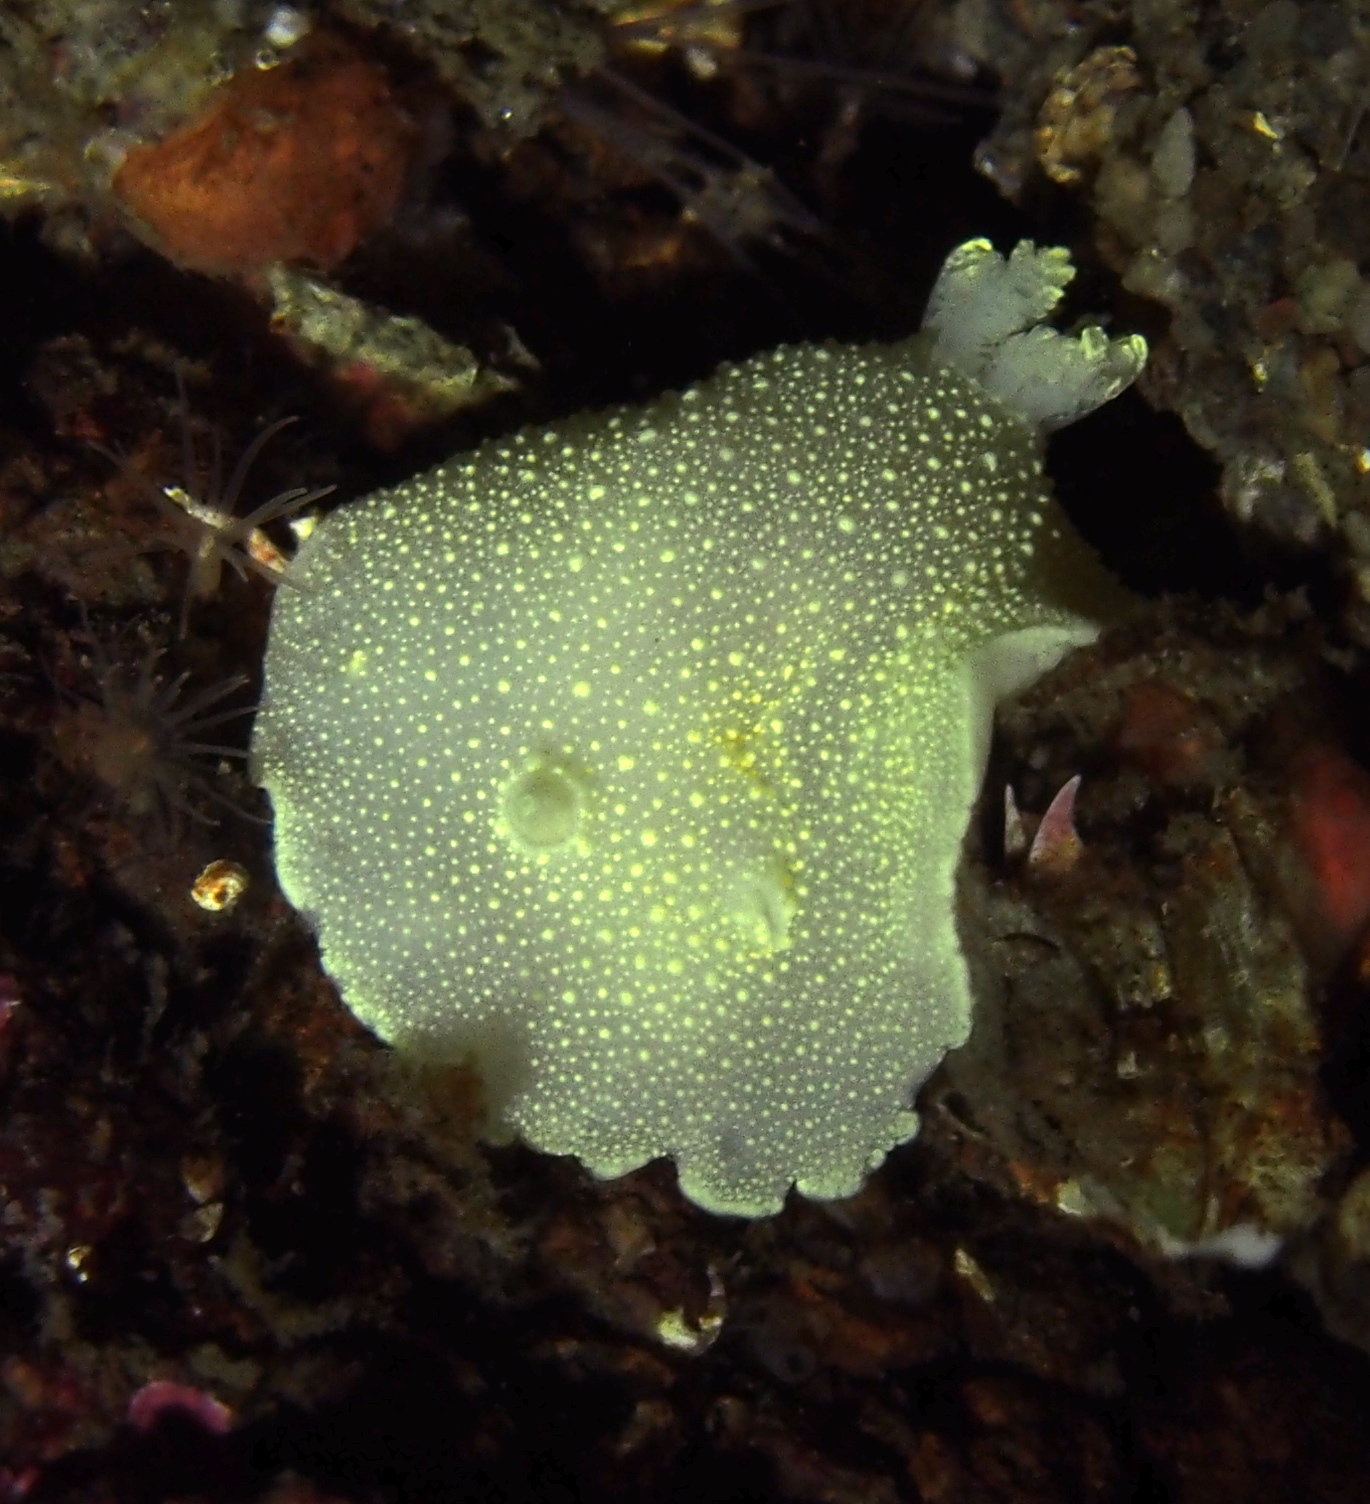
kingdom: Animalia
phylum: Mollusca
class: Gastropoda
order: Nudibranchia
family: Cadlinidae
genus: Cadlina
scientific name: Cadlina laevis
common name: White atlantic cadlina
